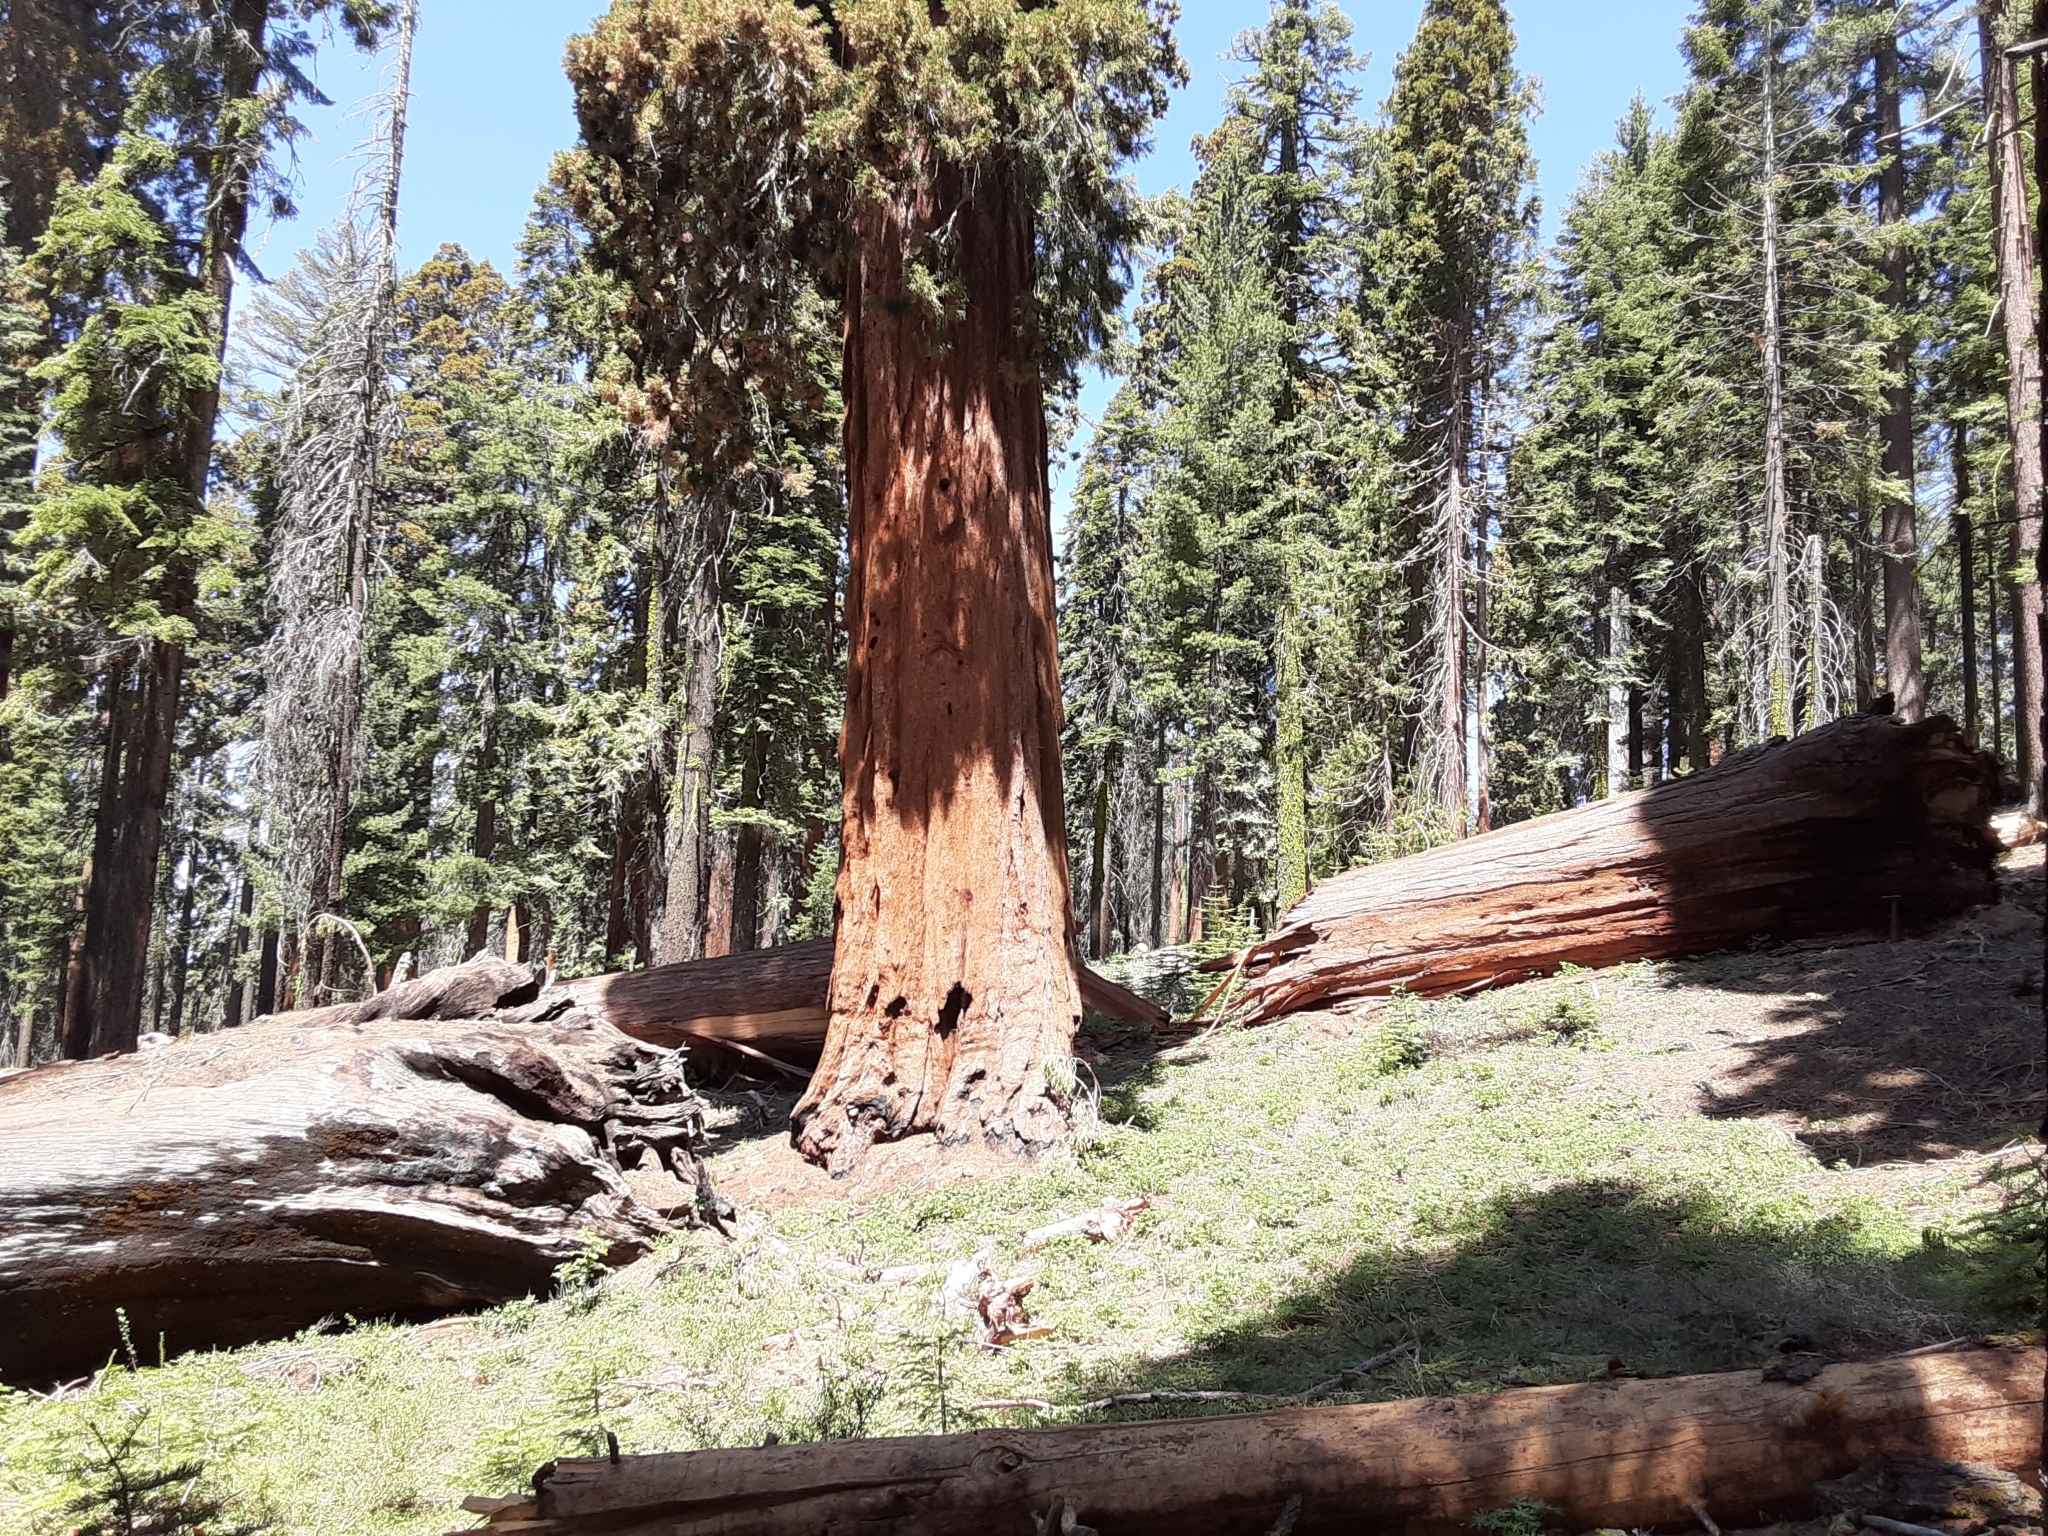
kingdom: Plantae
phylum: Tracheophyta
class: Pinopsida
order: Pinales
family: Cupressaceae
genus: Sequoiadendron
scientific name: Sequoiadendron giganteum
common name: Wellingtonia
